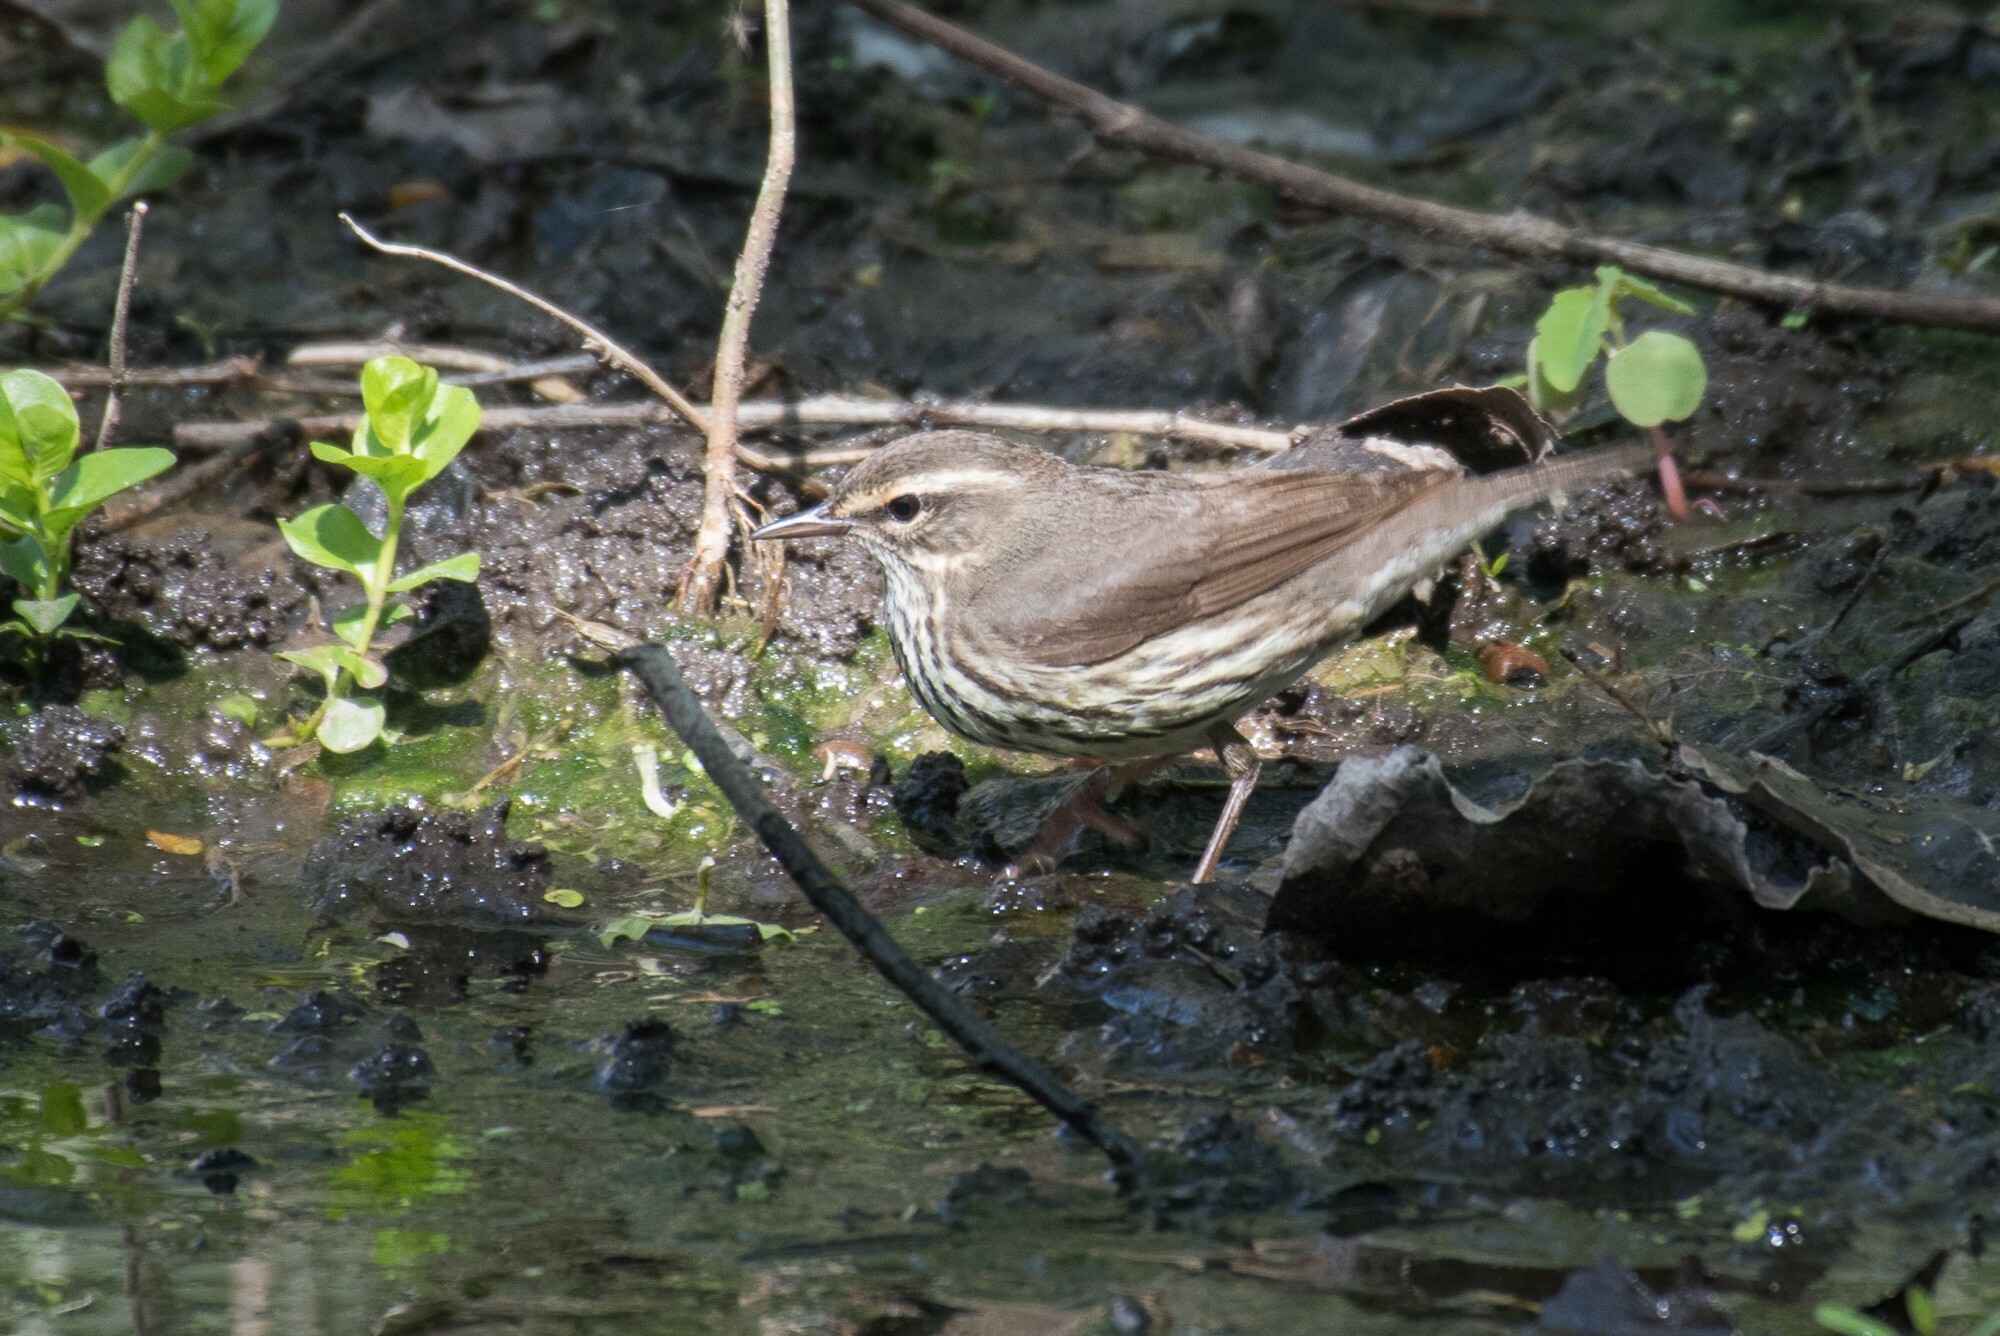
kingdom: Animalia
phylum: Chordata
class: Aves
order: Passeriformes
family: Parulidae
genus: Parkesia
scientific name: Parkesia noveboracensis
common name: Northern waterthrush
